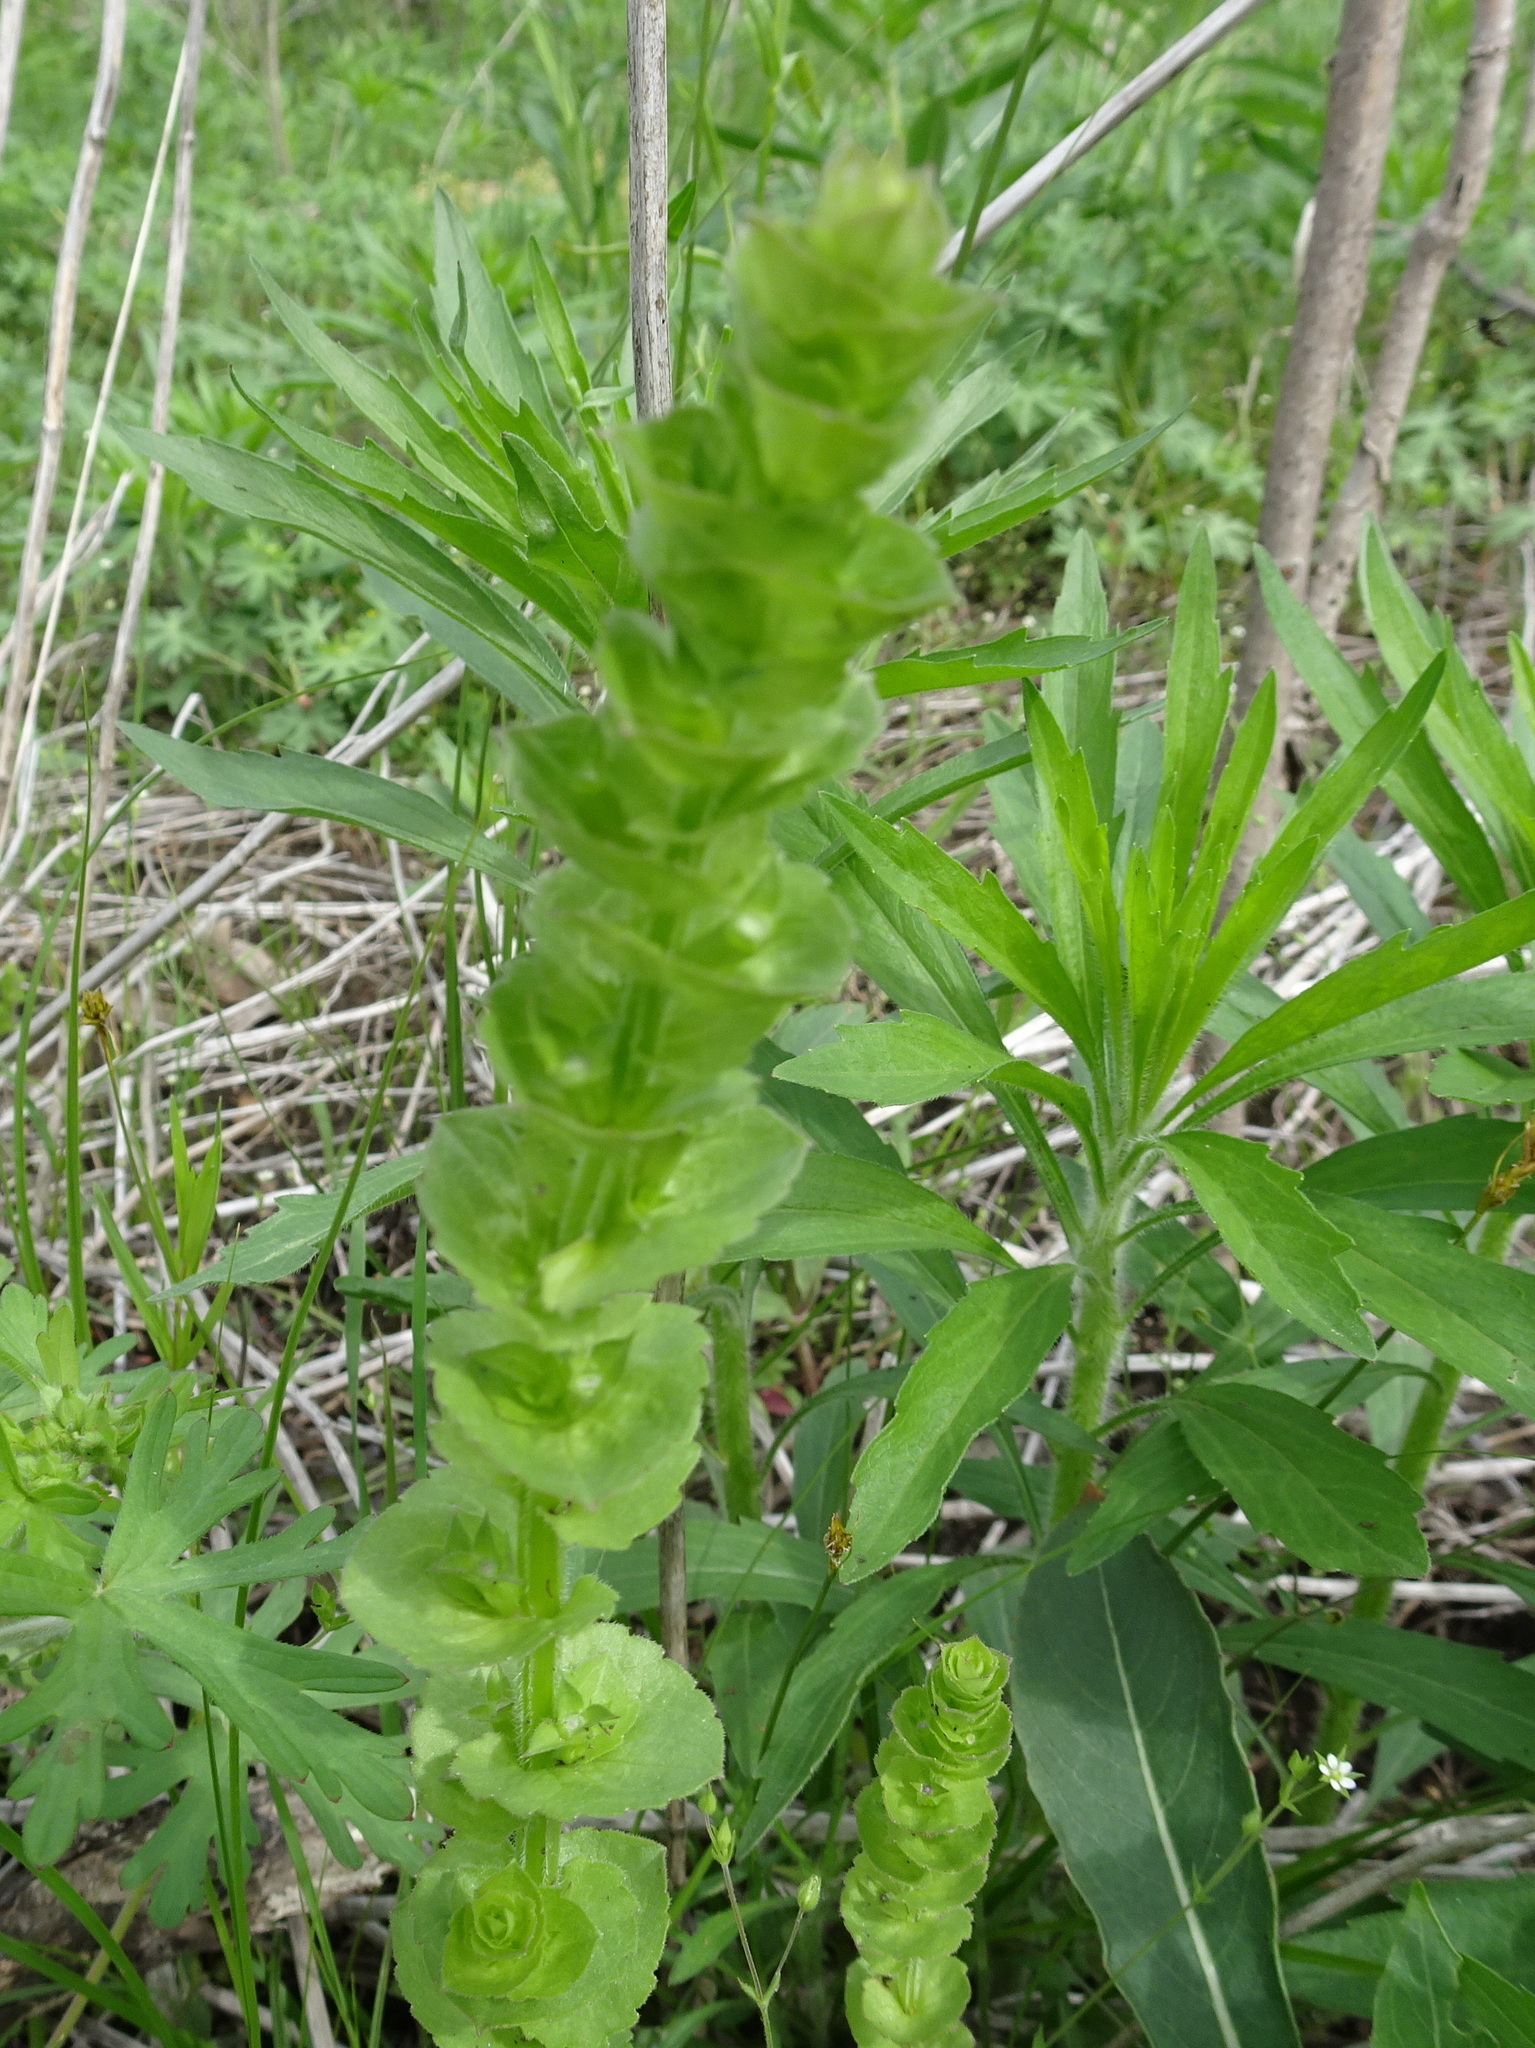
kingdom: Plantae
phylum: Tracheophyta
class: Magnoliopsida
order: Asterales
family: Campanulaceae
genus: Triodanis
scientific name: Triodanis perfoliata
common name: Clasping venus' looking-glass
